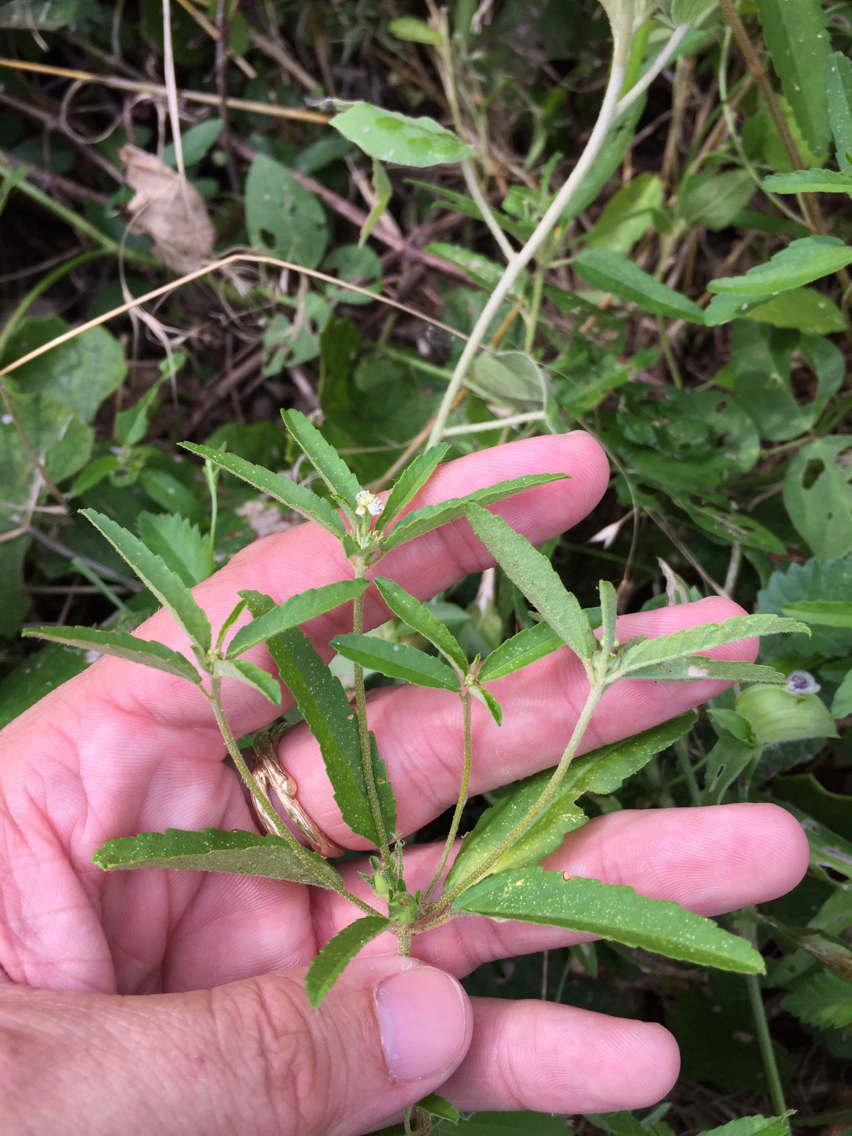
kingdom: Plantae
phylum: Tracheophyta
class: Magnoliopsida
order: Malpighiales
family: Euphorbiaceae
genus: Croton
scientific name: Croton glandulosus
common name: Tropic croton
